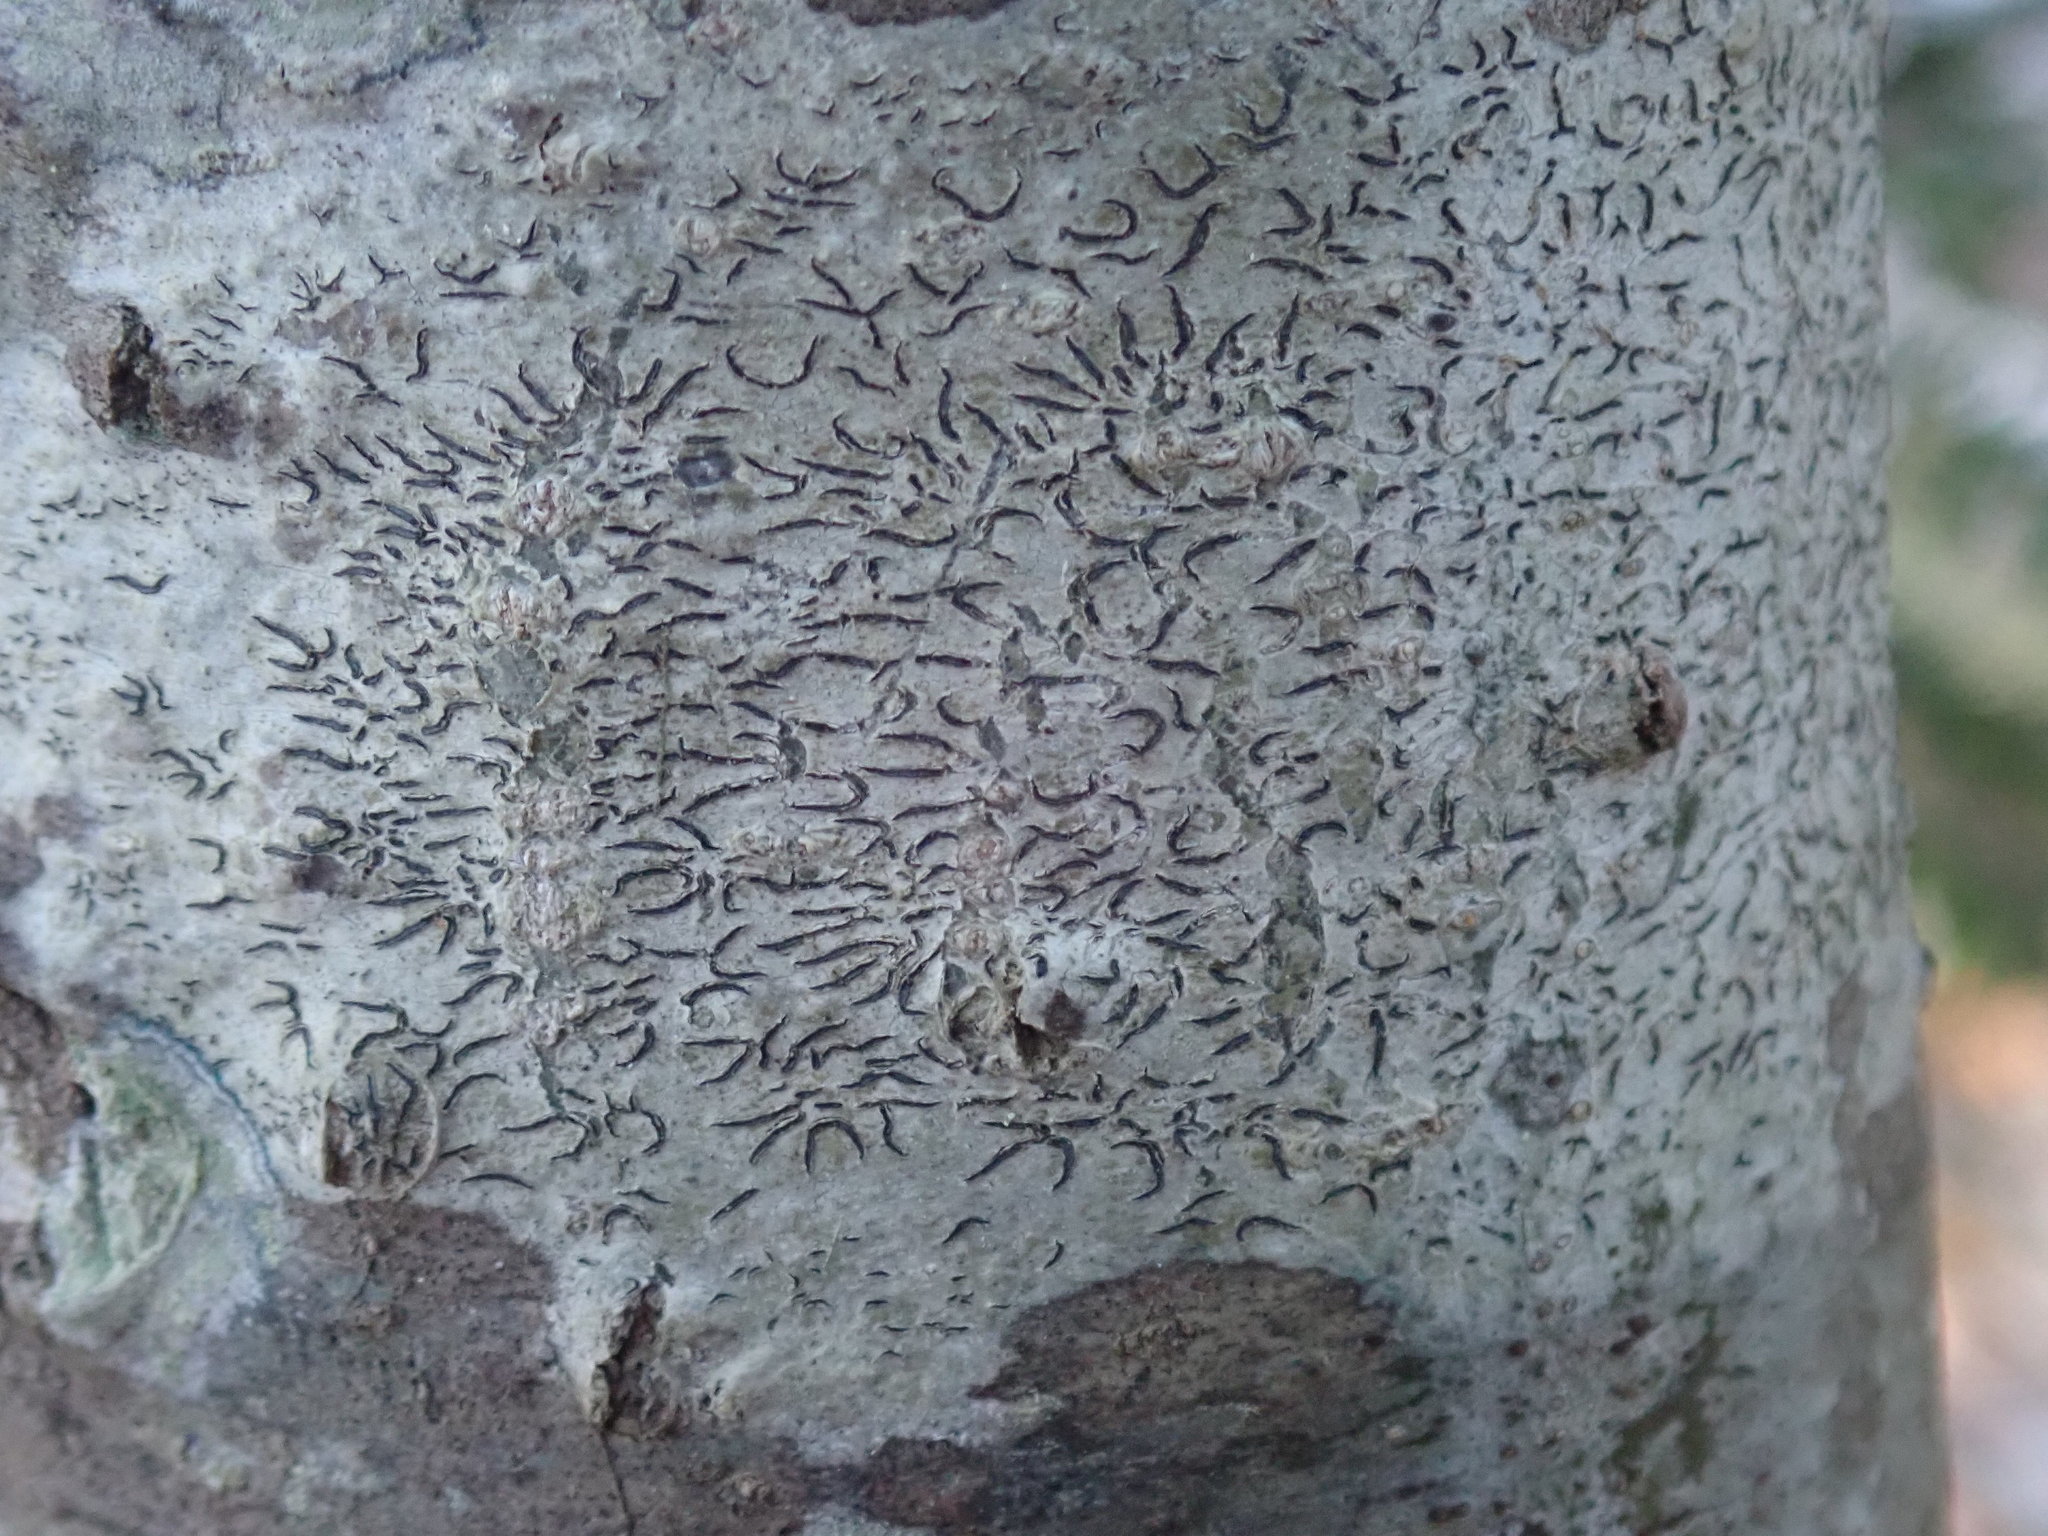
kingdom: Fungi
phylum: Ascomycota
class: Lecanoromycetes
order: Ostropales
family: Graphidaceae
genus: Graphis
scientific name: Graphis scripta
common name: Script lichen
